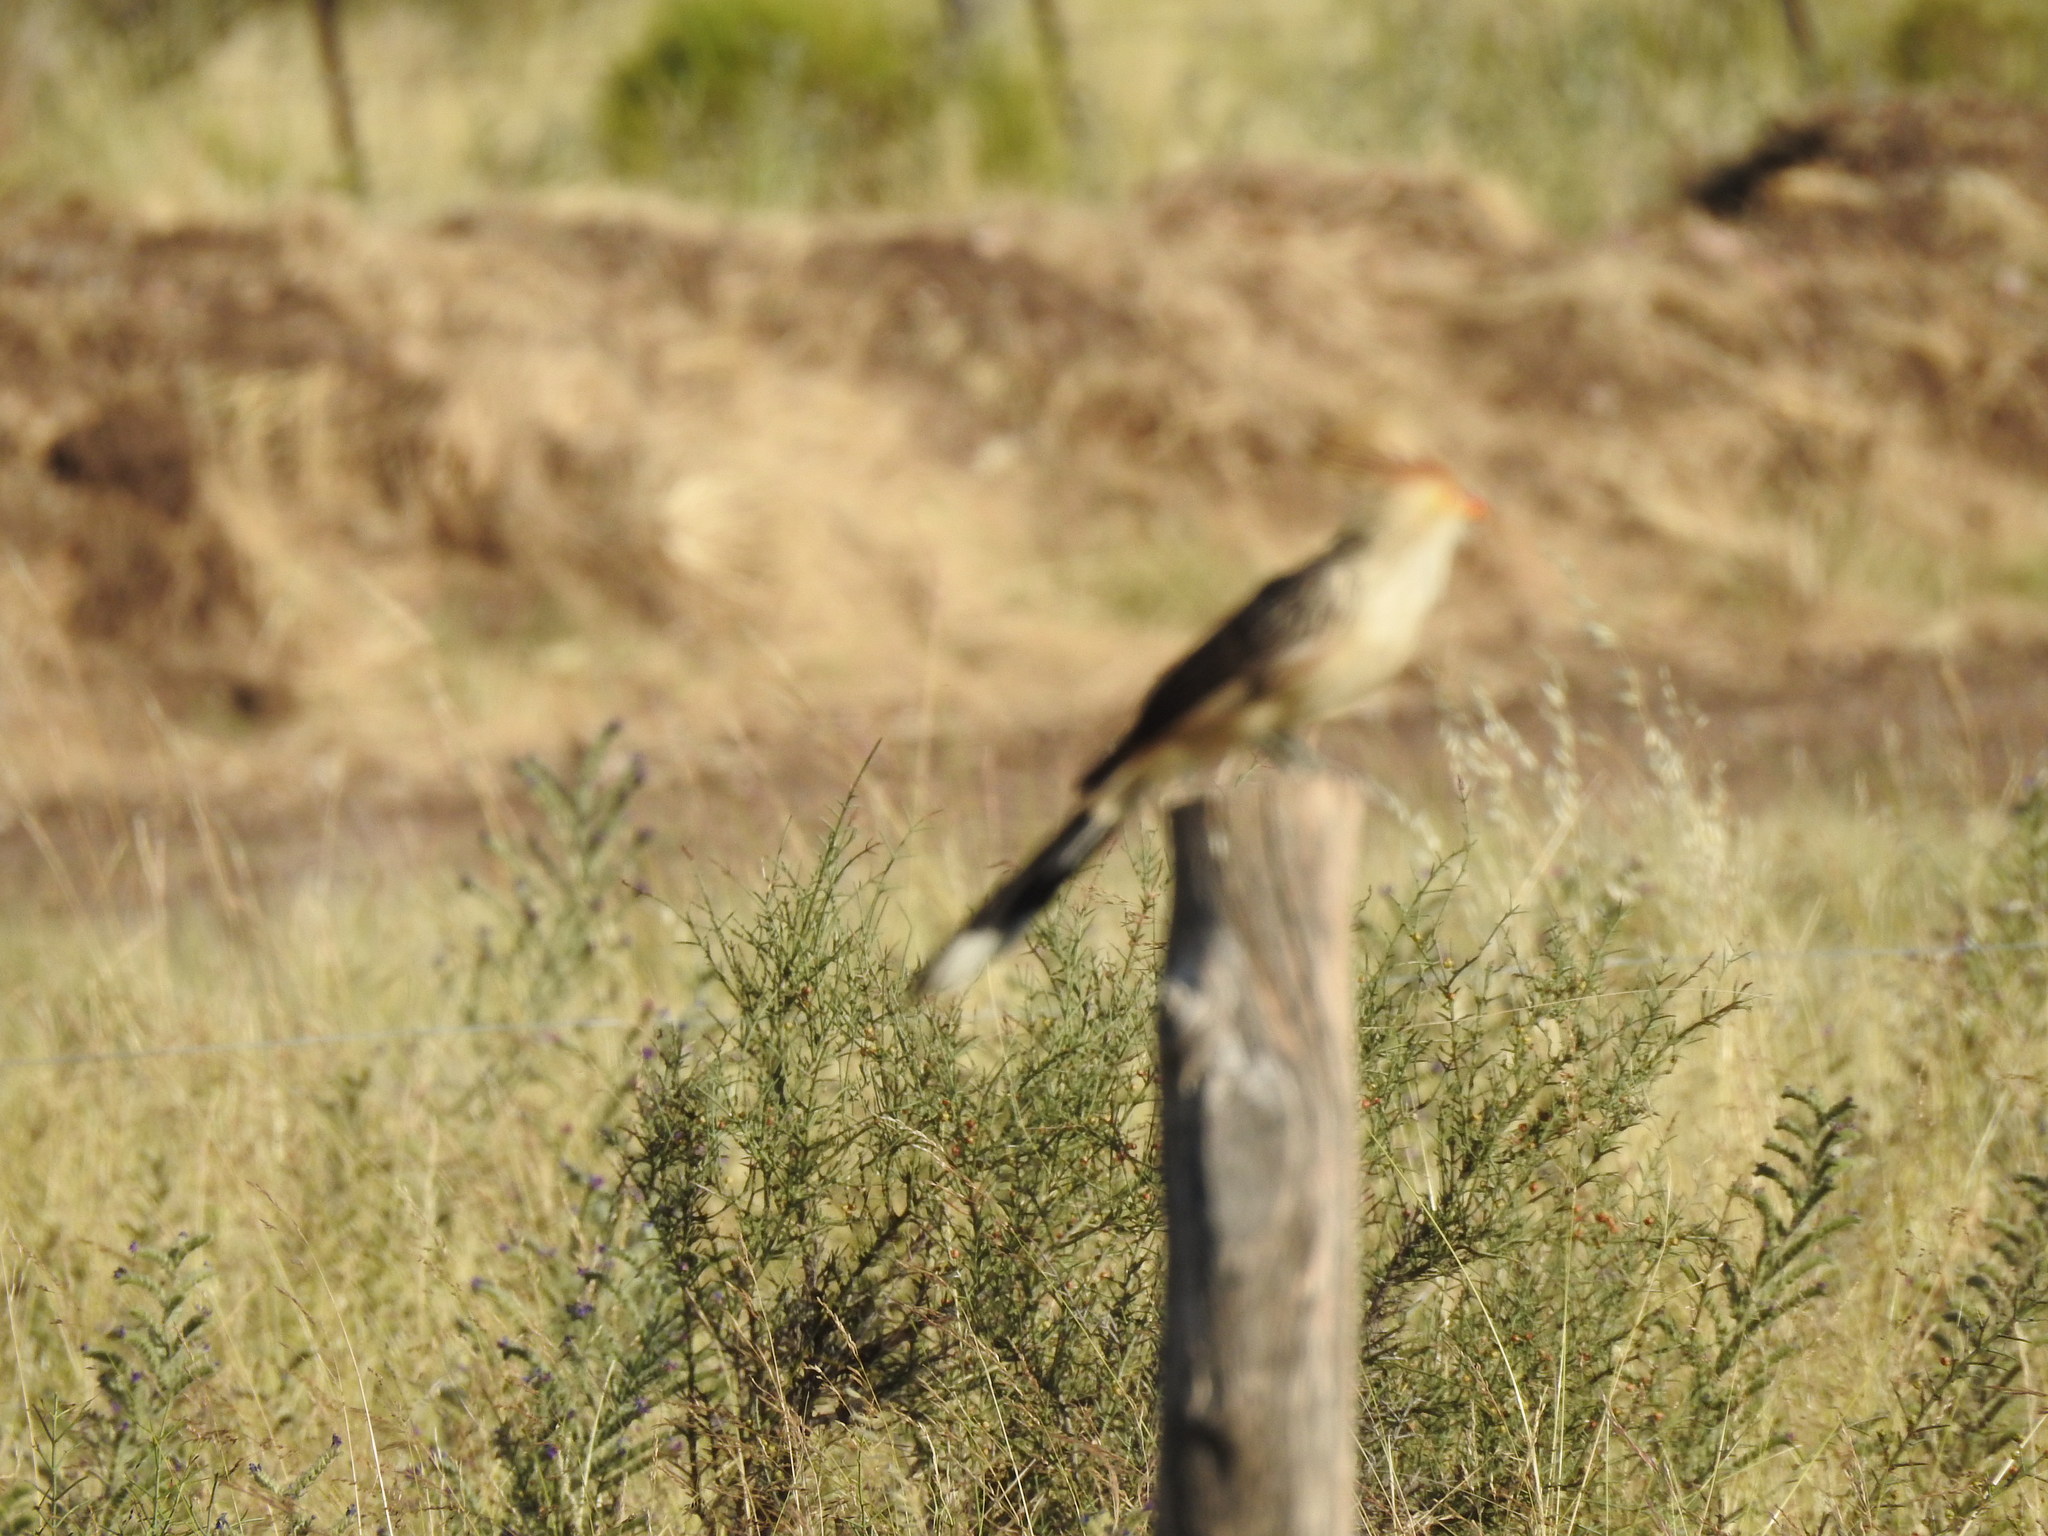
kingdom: Animalia
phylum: Chordata
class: Aves
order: Cuculiformes
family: Cuculidae
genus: Guira
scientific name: Guira guira
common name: Guira cuckoo
